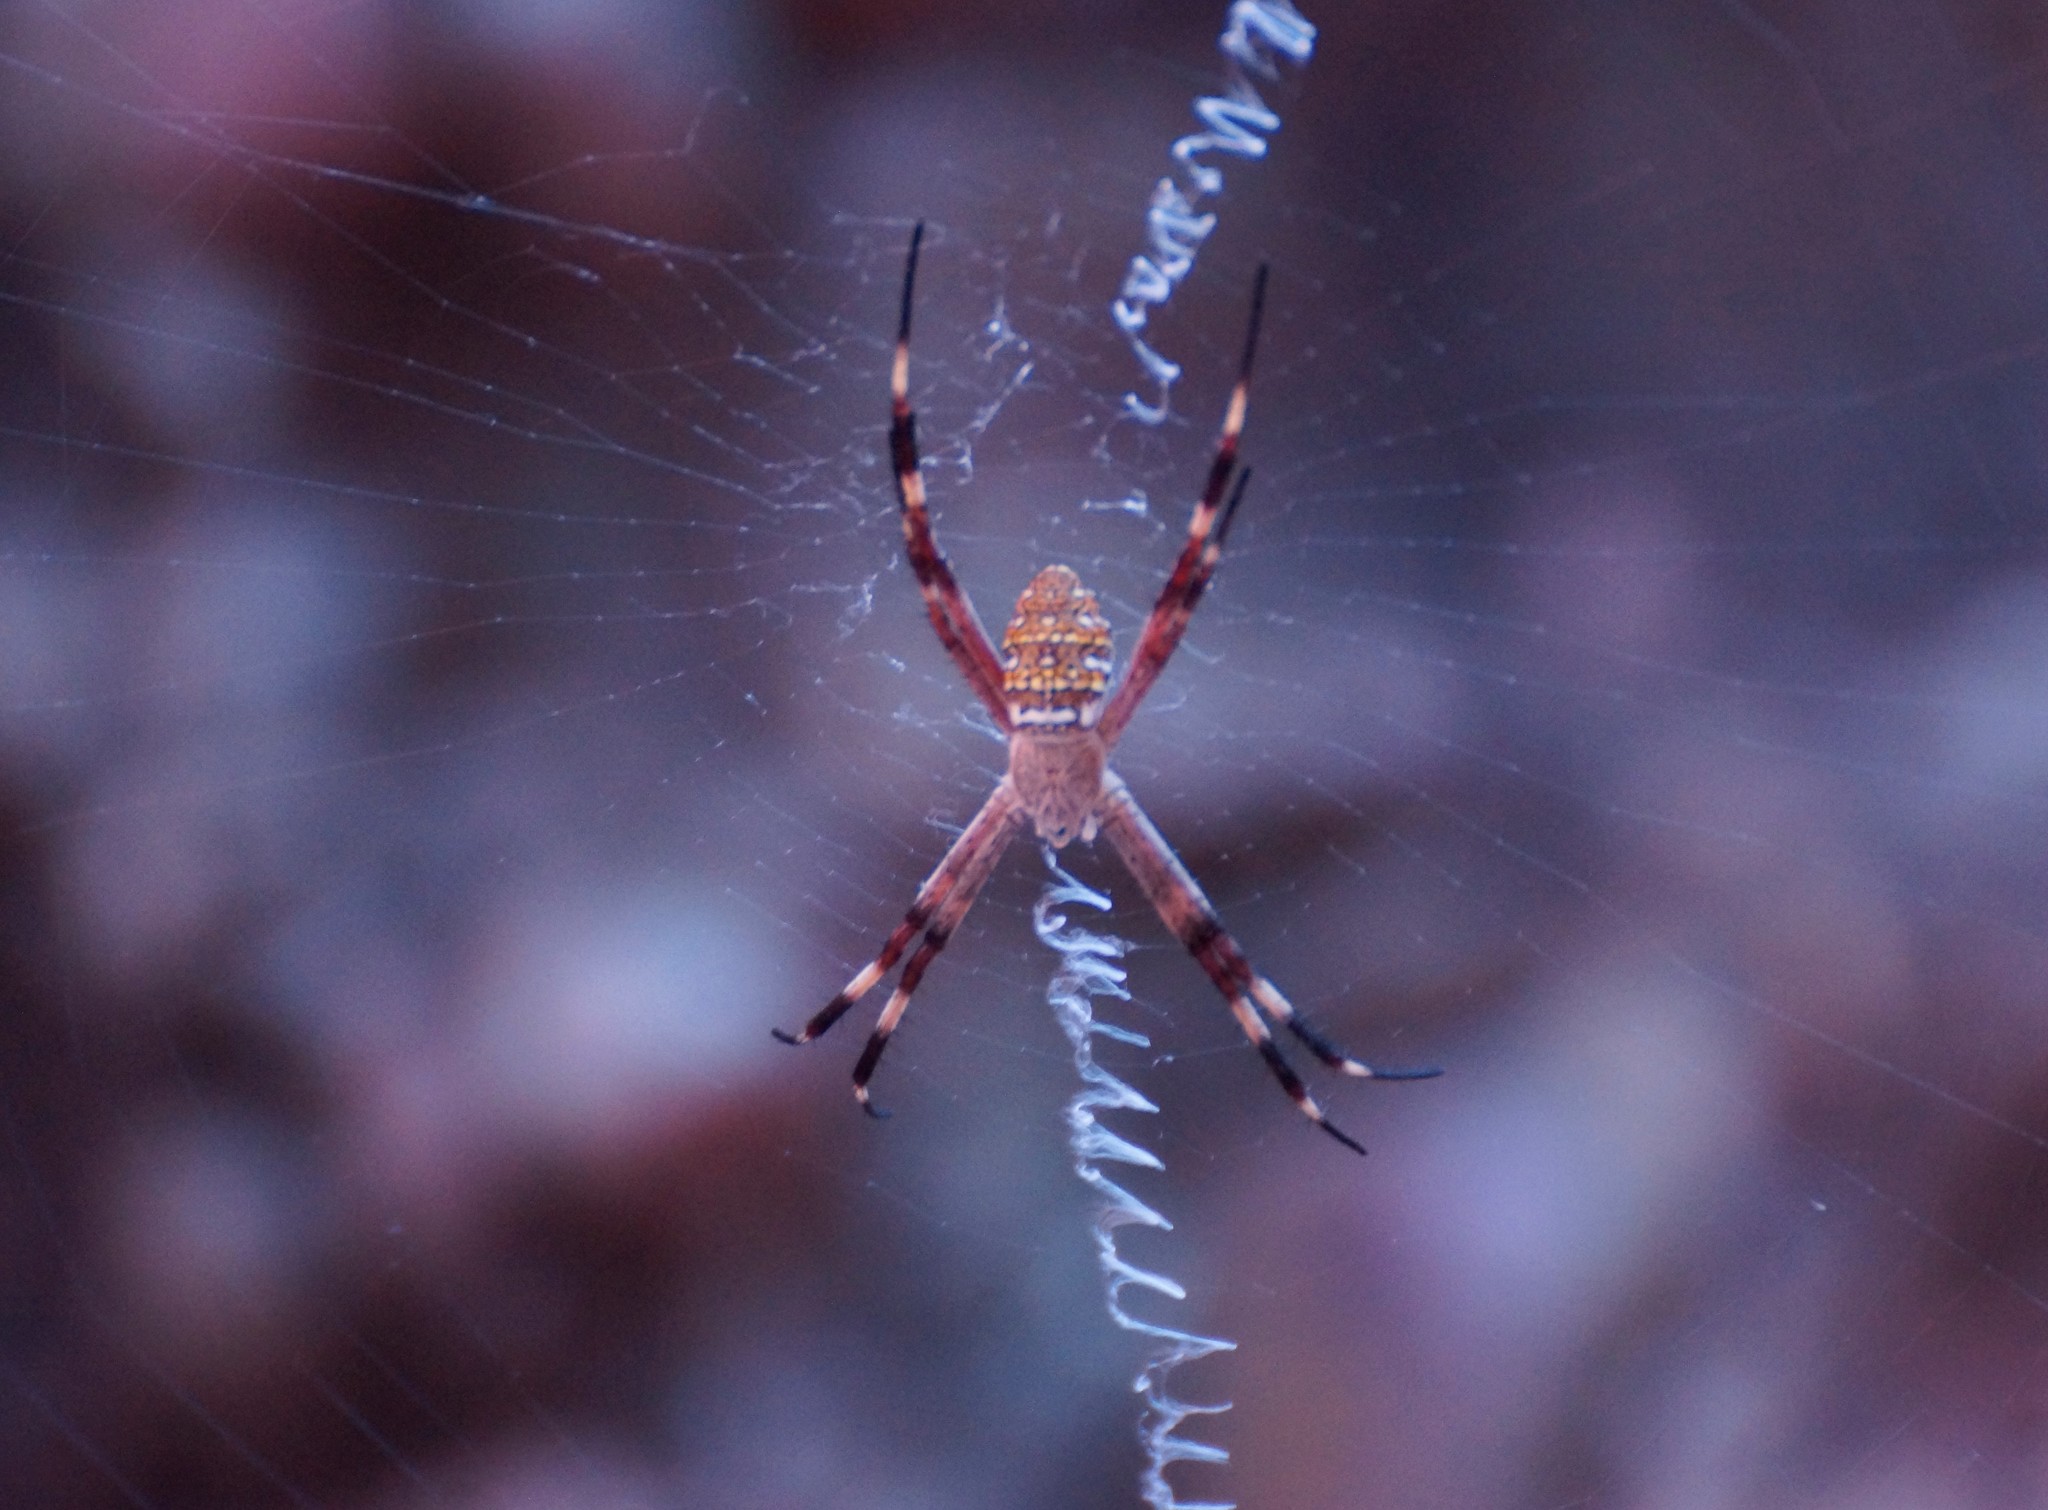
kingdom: Animalia
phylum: Arthropoda
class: Arachnida
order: Araneae
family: Araneidae
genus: Argiope
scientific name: Argiope dietrichae
